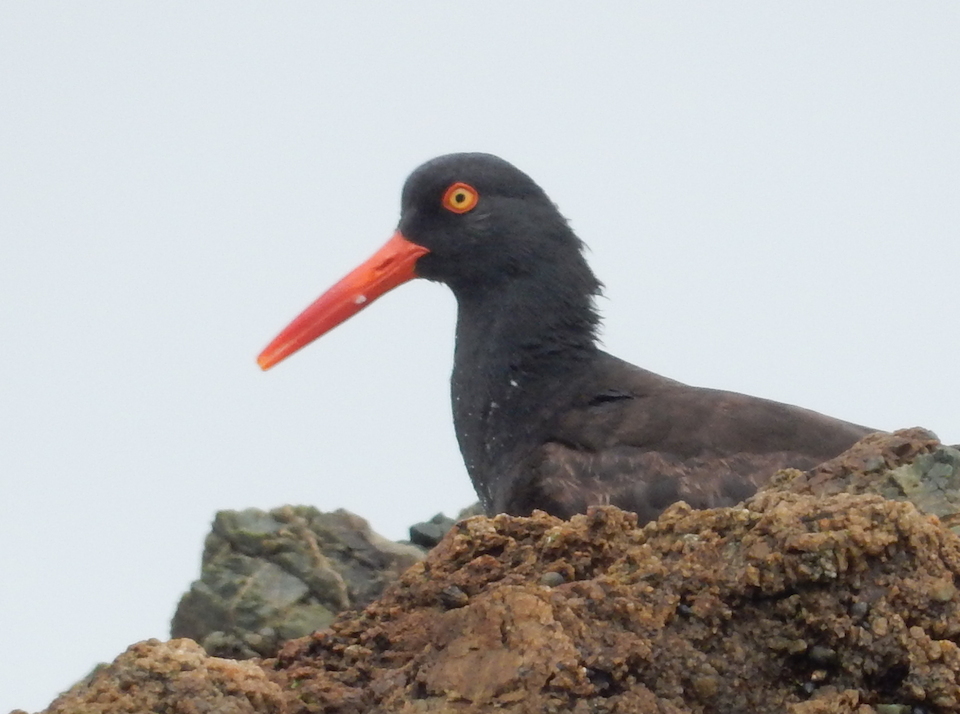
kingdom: Animalia
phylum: Chordata
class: Aves
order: Charadriiformes
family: Haematopodidae
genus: Haematopus
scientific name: Haematopus bachmani
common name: Black oystercatcher
